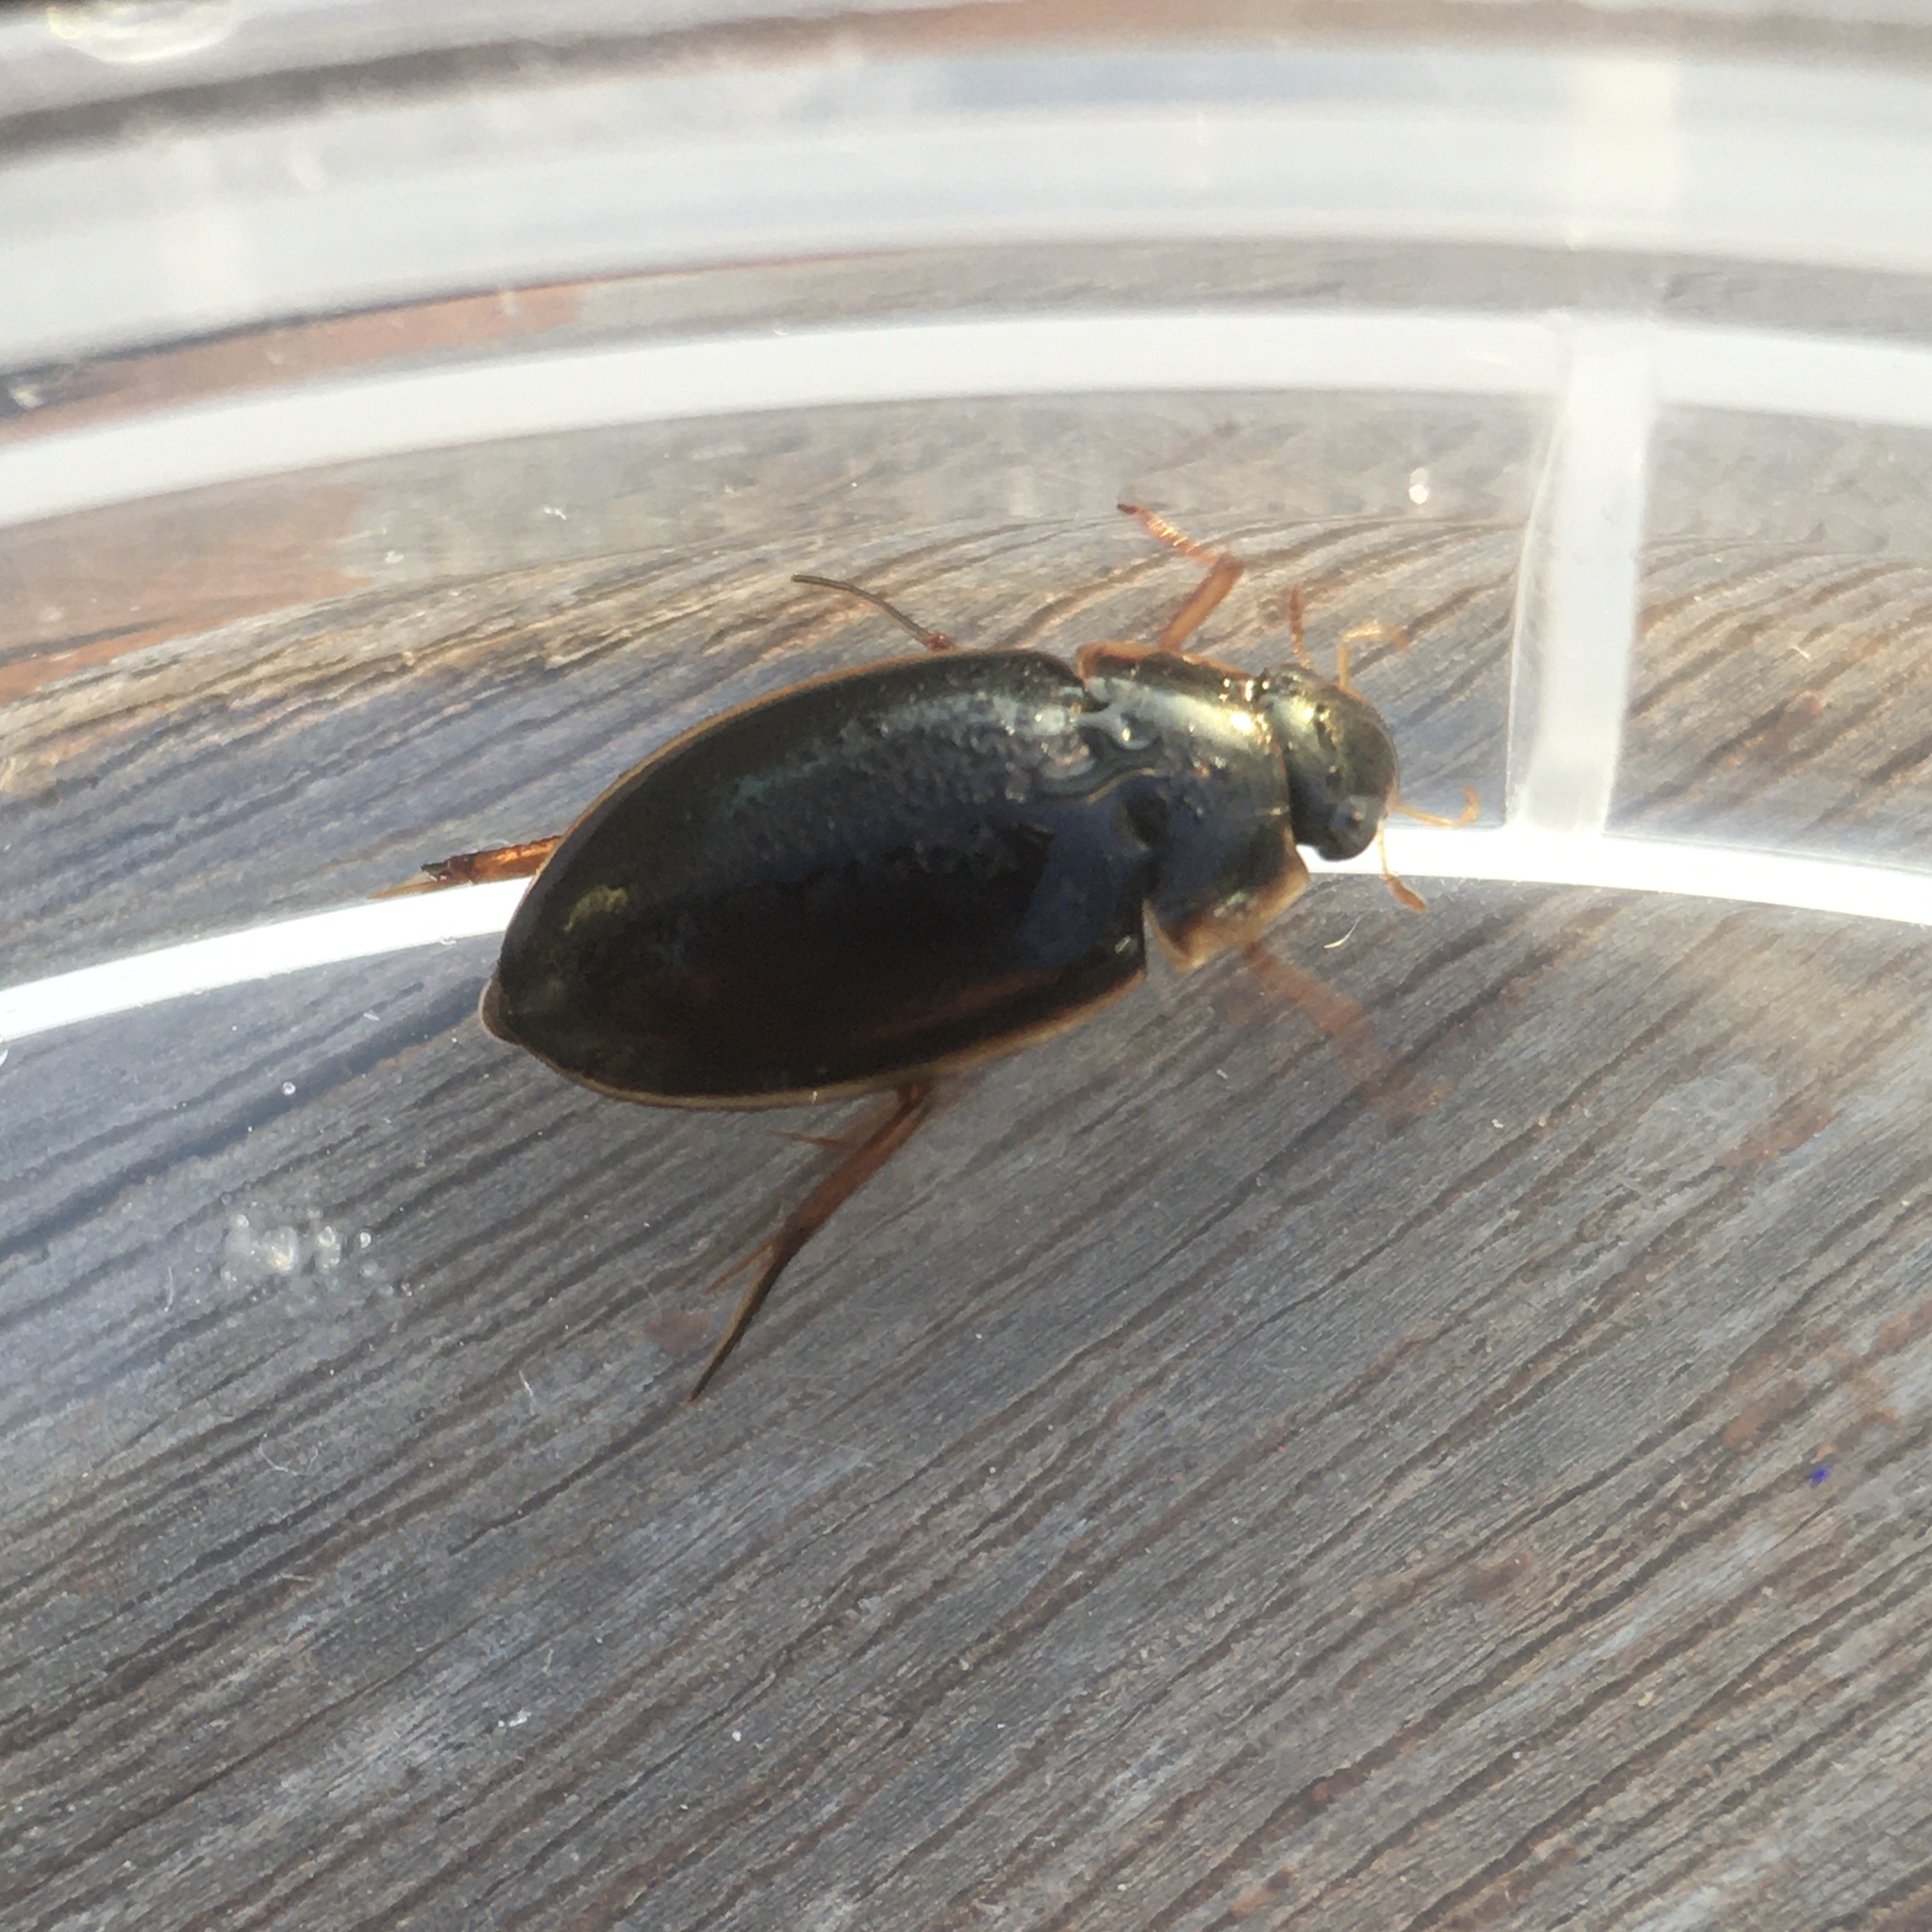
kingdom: Animalia
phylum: Arthropoda
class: Insecta
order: Coleoptera
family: Hydrophilidae
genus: Tropisternus
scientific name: Tropisternus lateralis
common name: Lateral-banded water scavenger beetle
